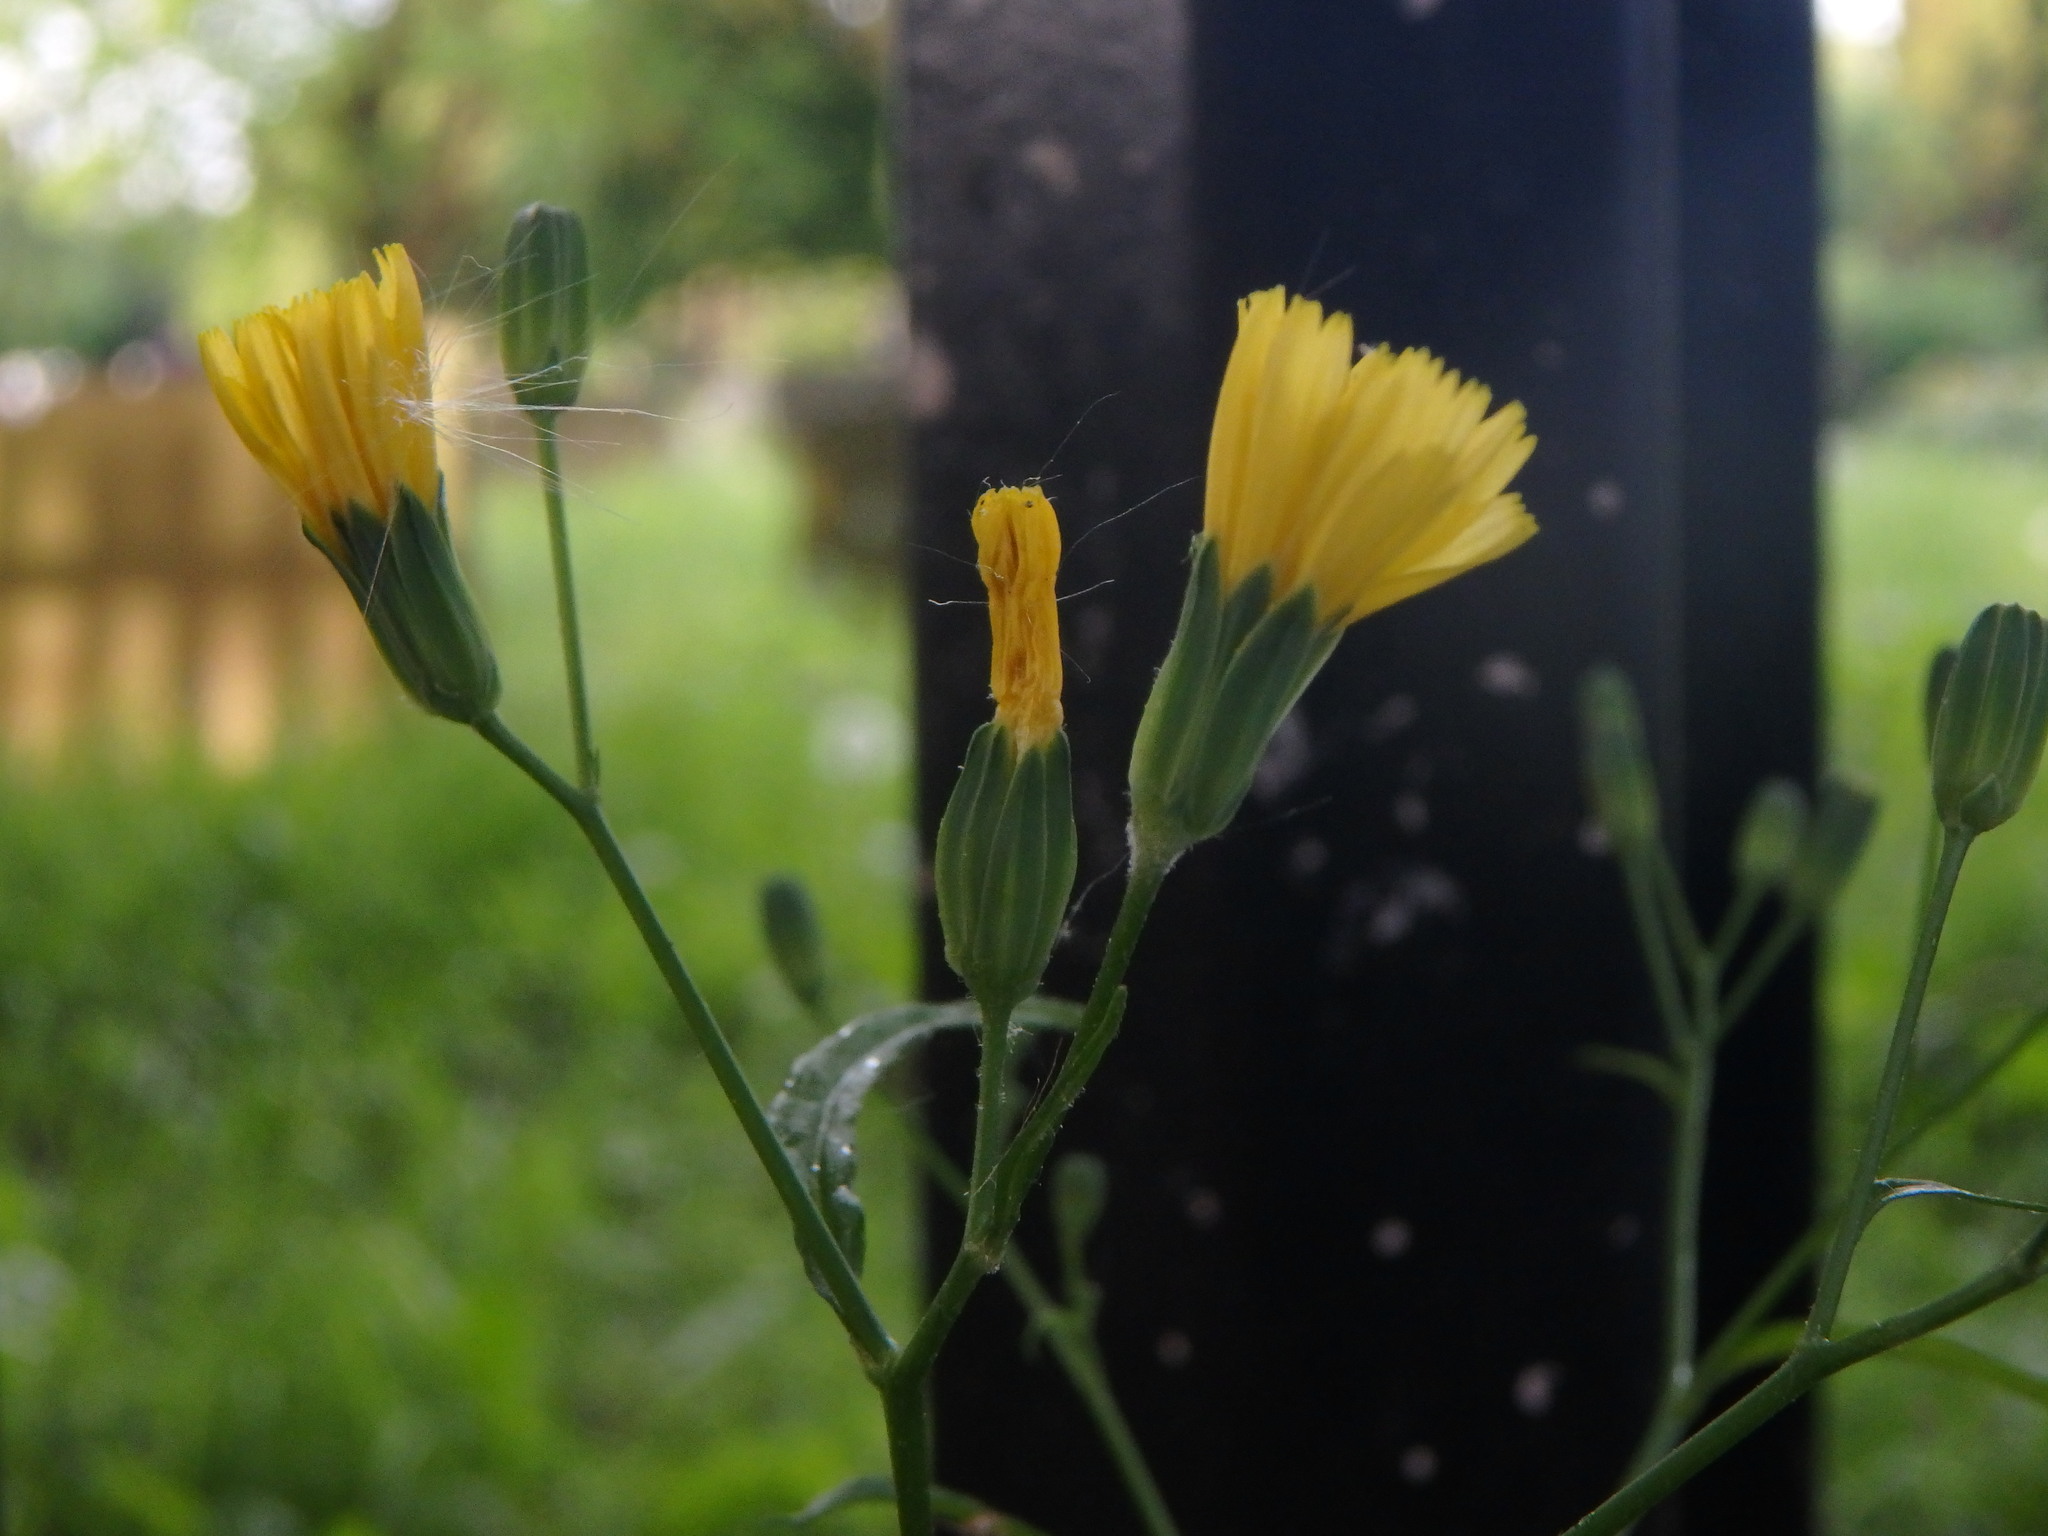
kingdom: Plantae
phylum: Tracheophyta
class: Magnoliopsida
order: Asterales
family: Asteraceae
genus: Lapsana
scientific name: Lapsana communis
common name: Nipplewort
